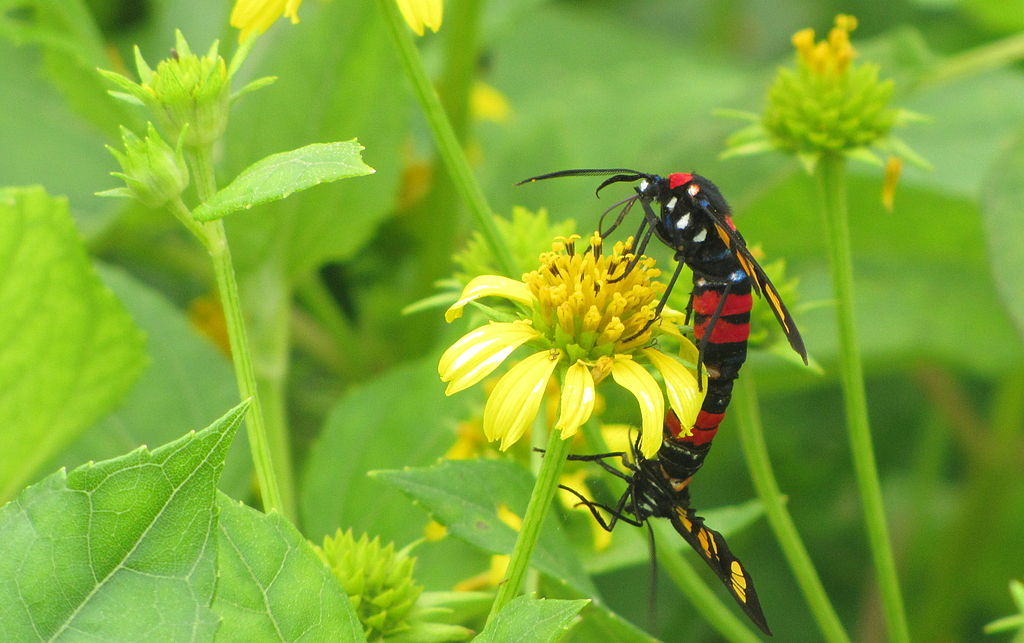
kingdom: Animalia
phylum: Arthropoda
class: Insecta
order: Lepidoptera
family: Erebidae
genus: Euchromia
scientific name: Euchromia polymena
